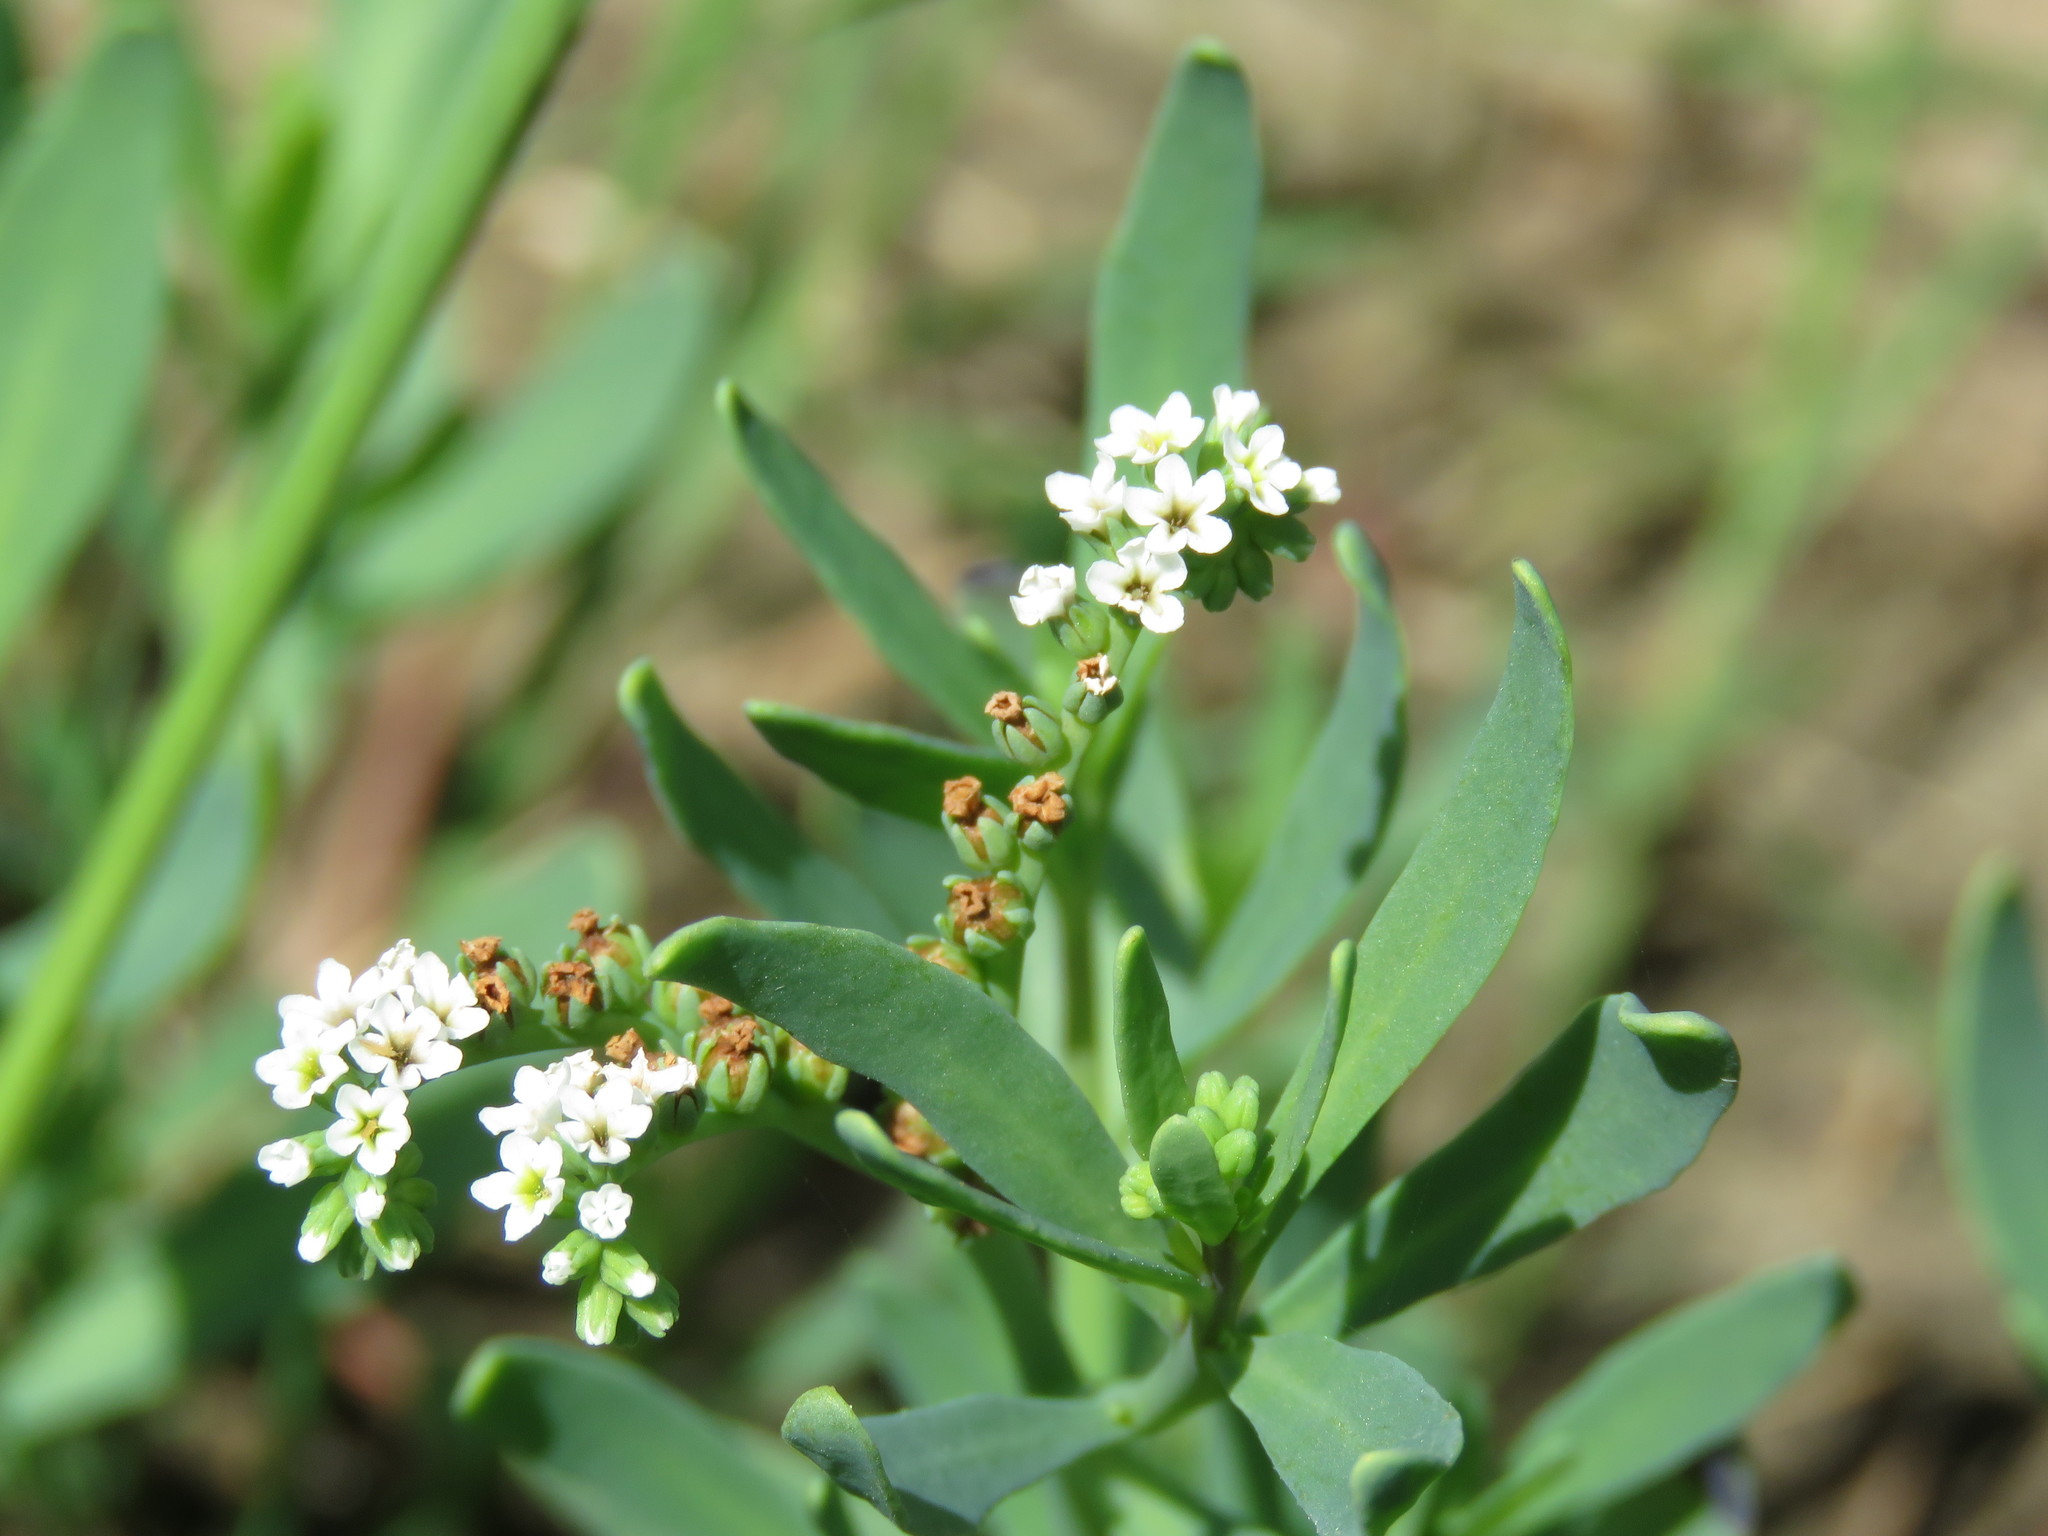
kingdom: Plantae
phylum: Tracheophyta
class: Magnoliopsida
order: Boraginales
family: Heliotropiaceae
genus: Heliotropium
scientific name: Heliotropium curassavicum
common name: Seaside heliotrope
